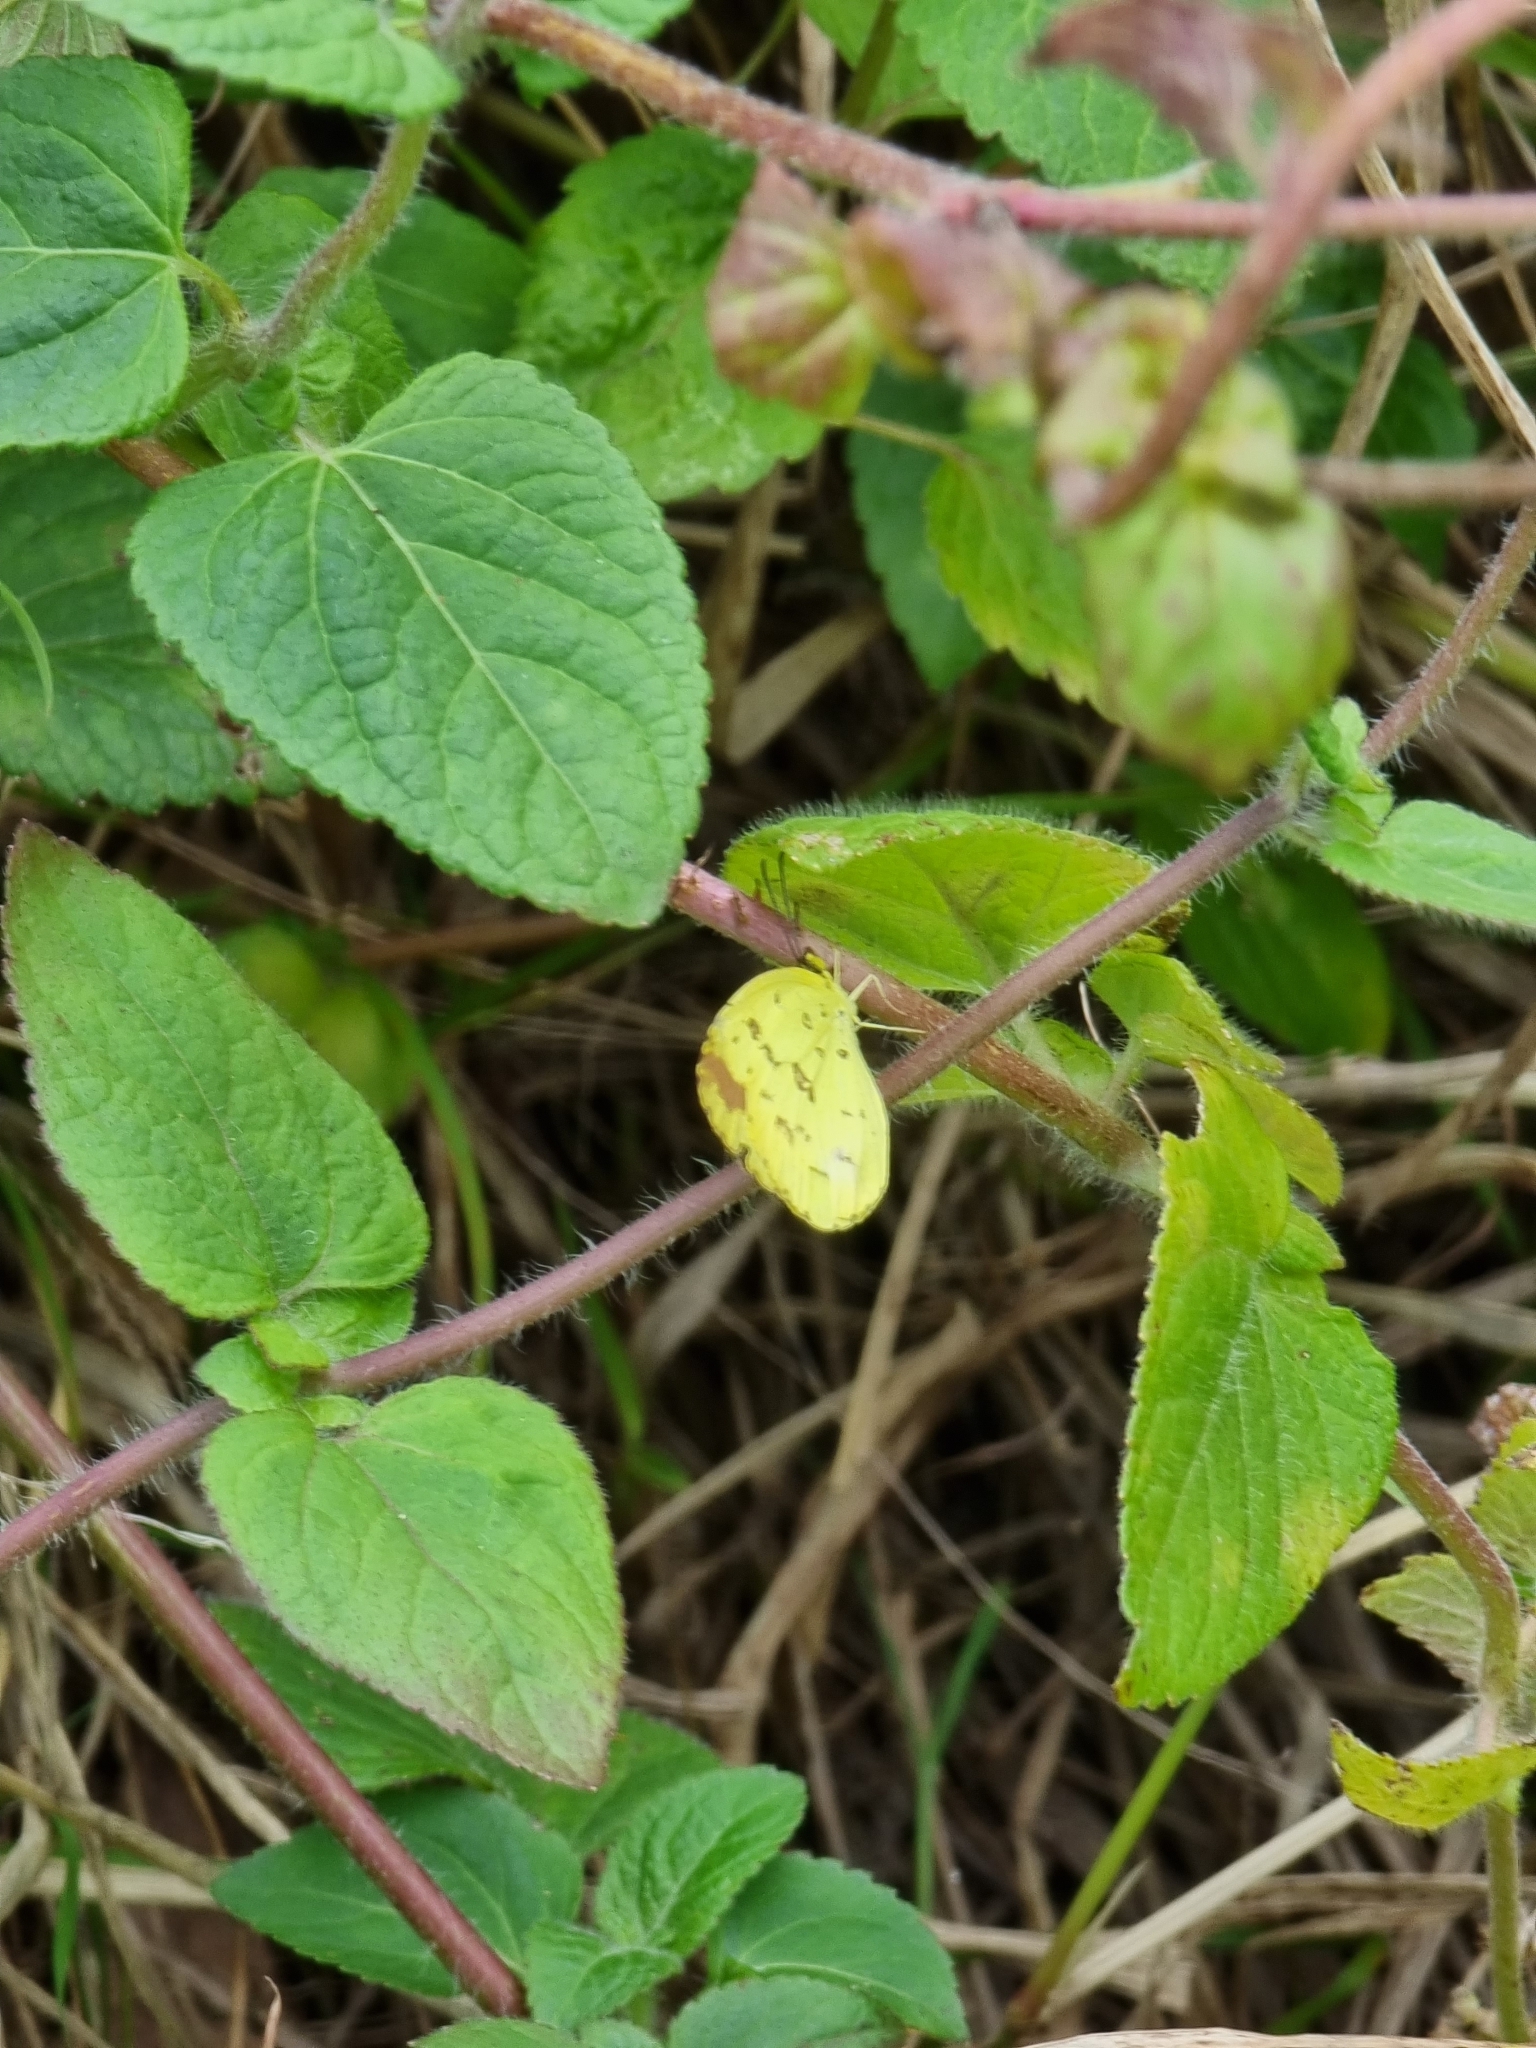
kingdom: Animalia
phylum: Arthropoda
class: Insecta
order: Lepidoptera
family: Pieridae
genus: Eurema
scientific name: Eurema hecabe
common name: Pale grass yellow
